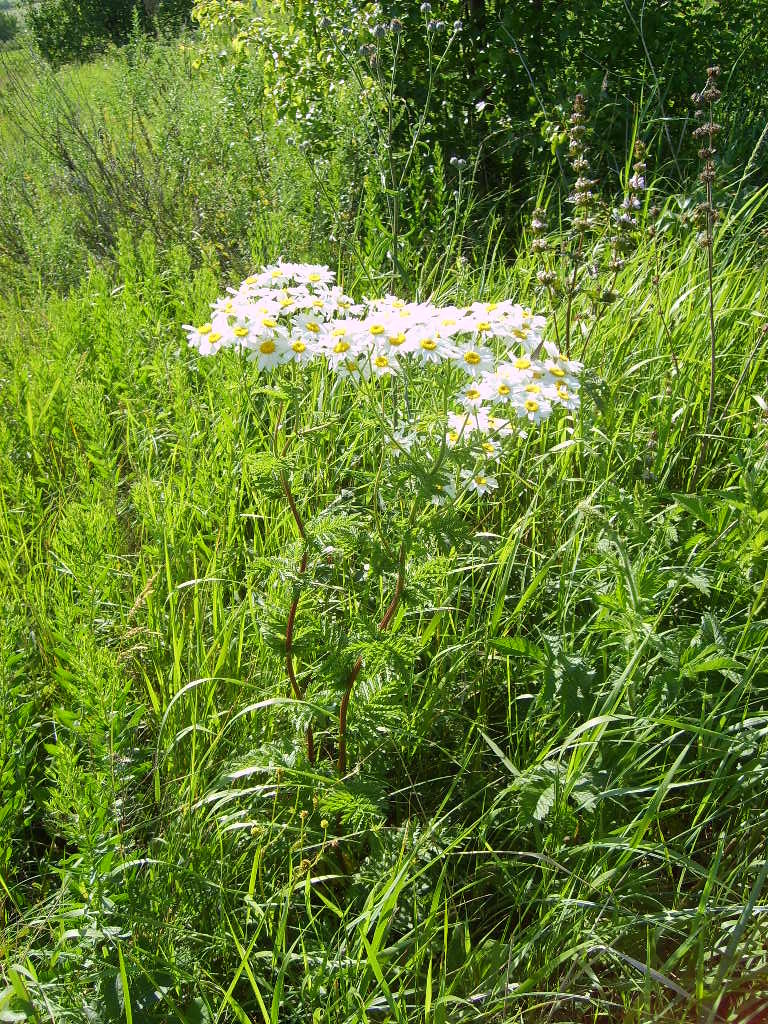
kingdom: Plantae
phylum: Tracheophyta
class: Magnoliopsida
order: Asterales
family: Asteraceae
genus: Tanacetum
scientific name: Tanacetum corymbosum
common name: Scentless feverfew
